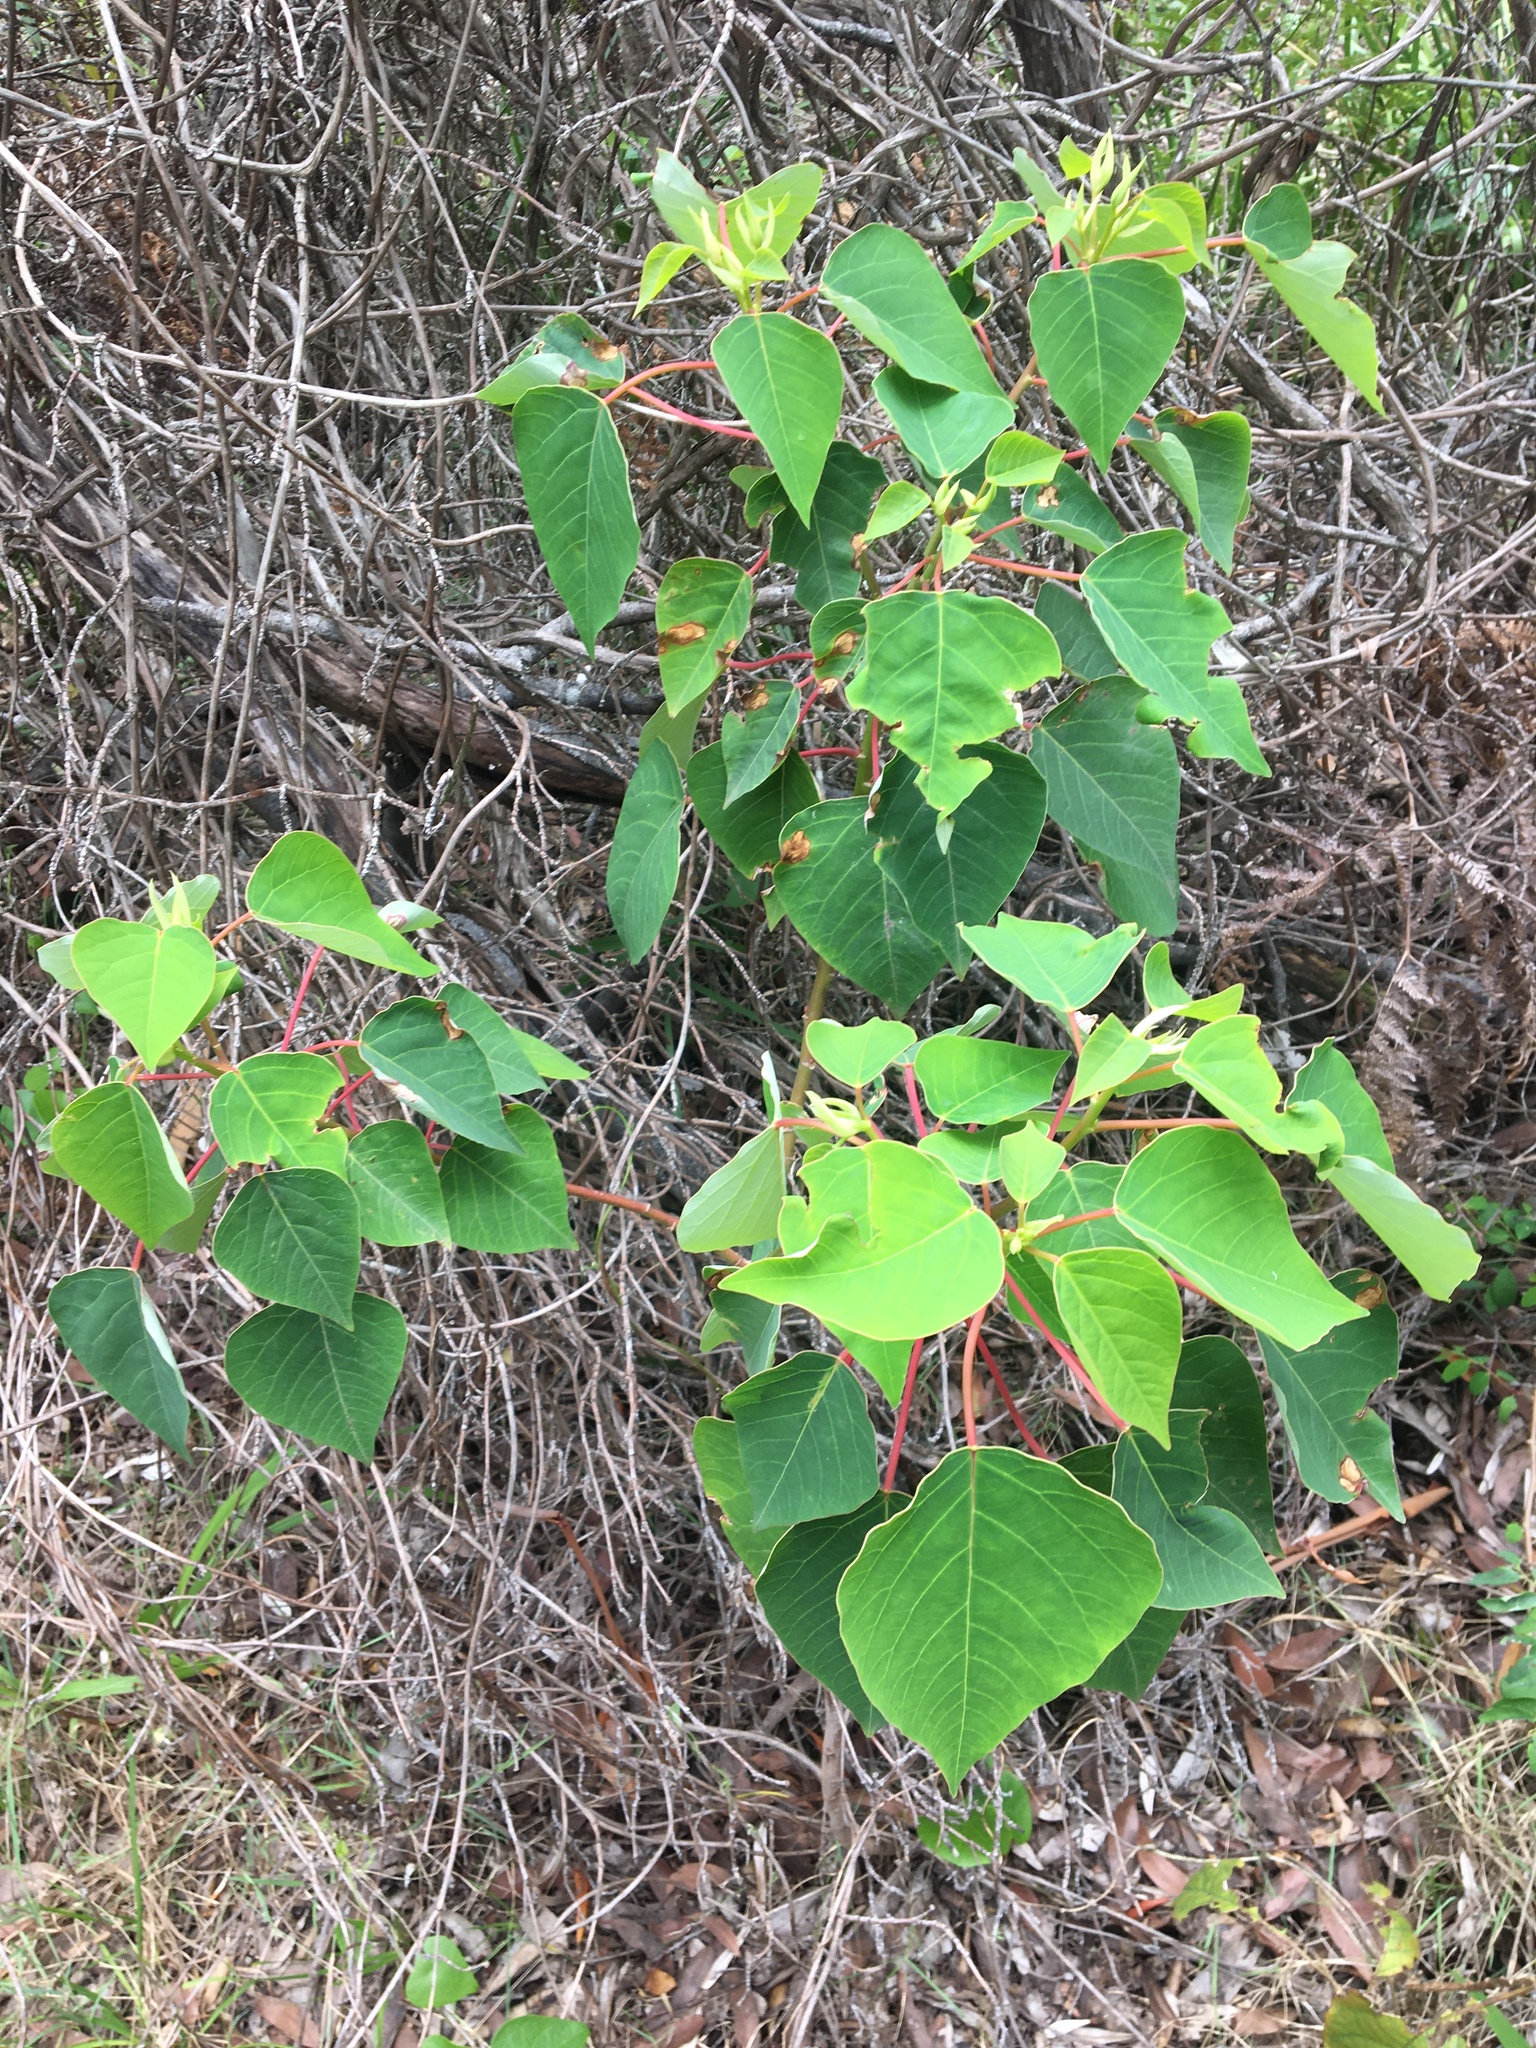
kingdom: Plantae
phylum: Tracheophyta
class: Magnoliopsida
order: Malpighiales
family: Euphorbiaceae
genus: Homalanthus
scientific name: Homalanthus populifolius
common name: Queensland poplar
